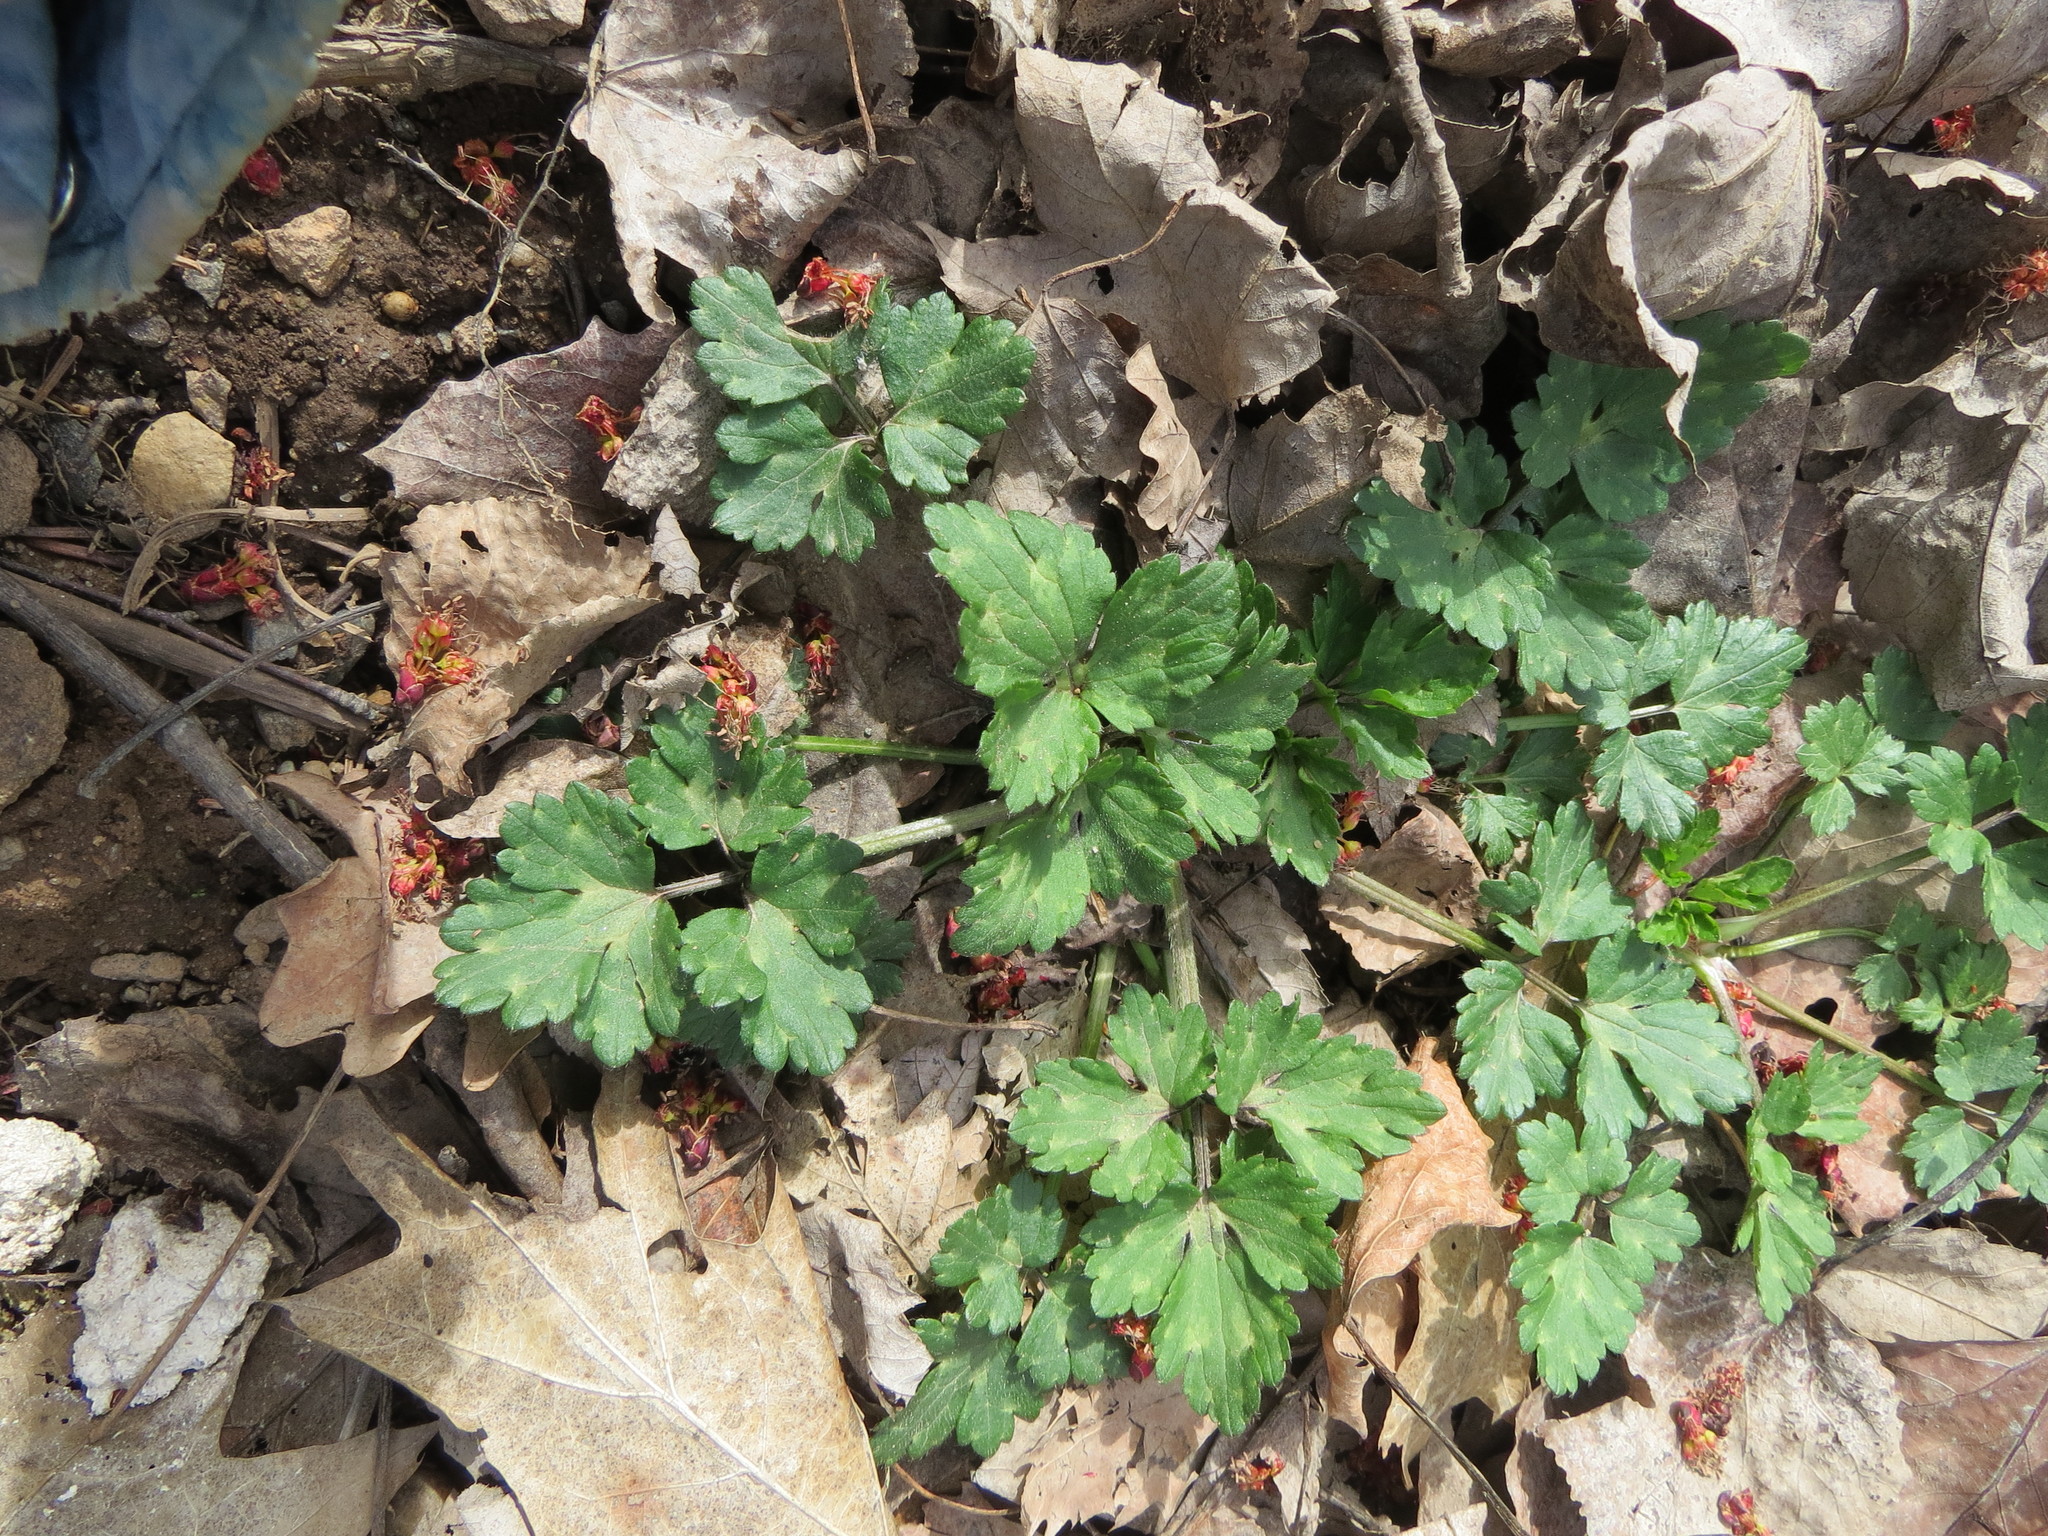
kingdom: Plantae
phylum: Tracheophyta
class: Magnoliopsida
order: Ranunculales
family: Ranunculaceae
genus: Ranunculus
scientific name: Ranunculus repens
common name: Creeping buttercup
